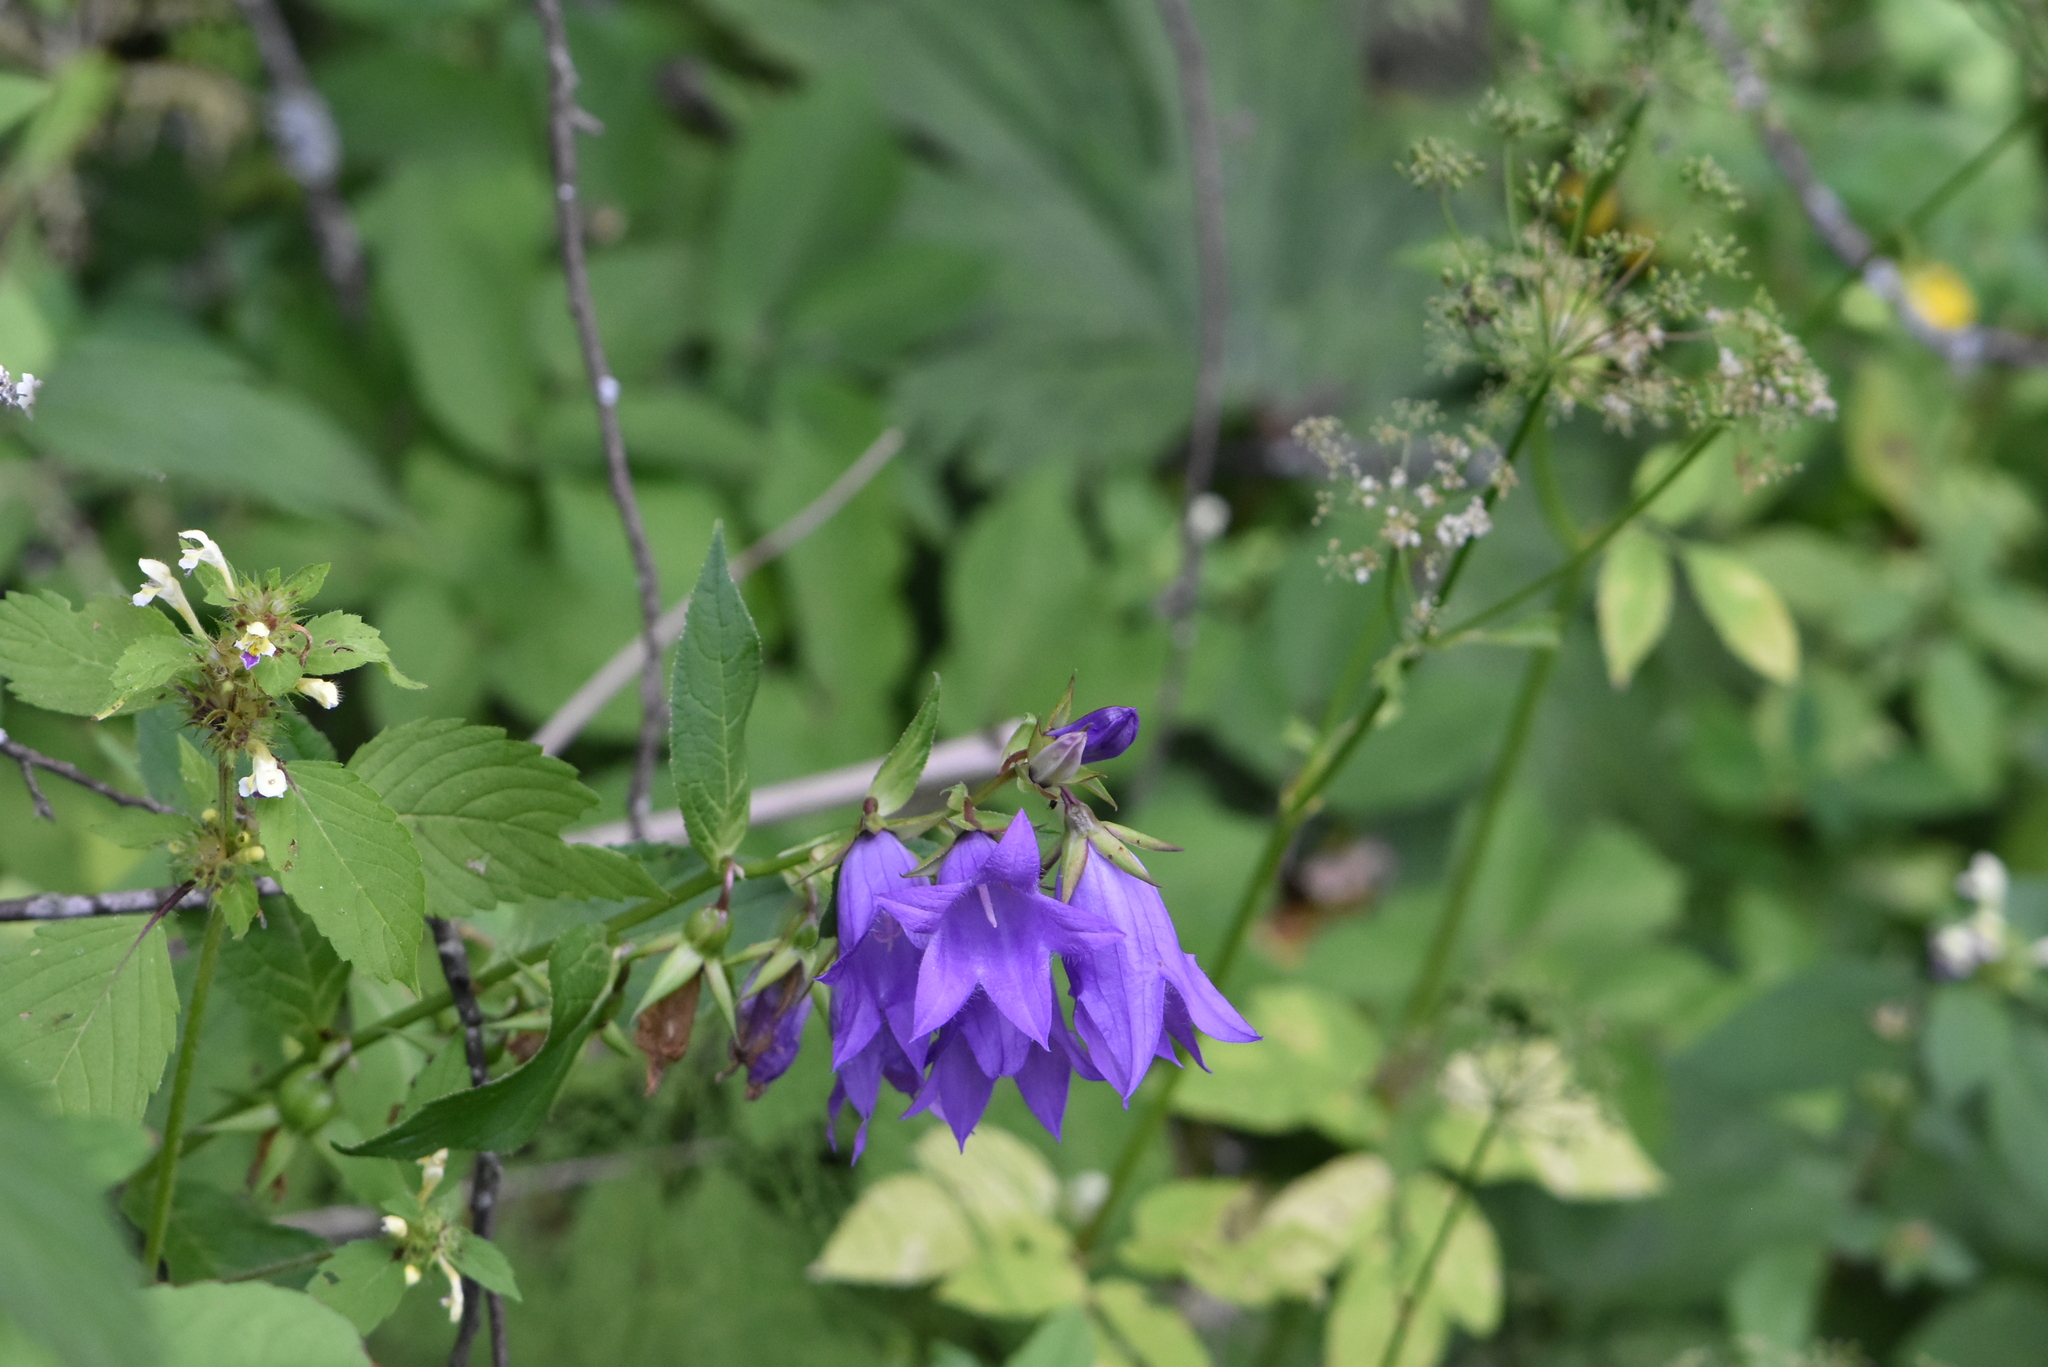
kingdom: Plantae
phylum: Tracheophyta
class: Magnoliopsida
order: Asterales
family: Campanulaceae
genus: Campanula
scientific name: Campanula latifolia
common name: Giant bellflower
